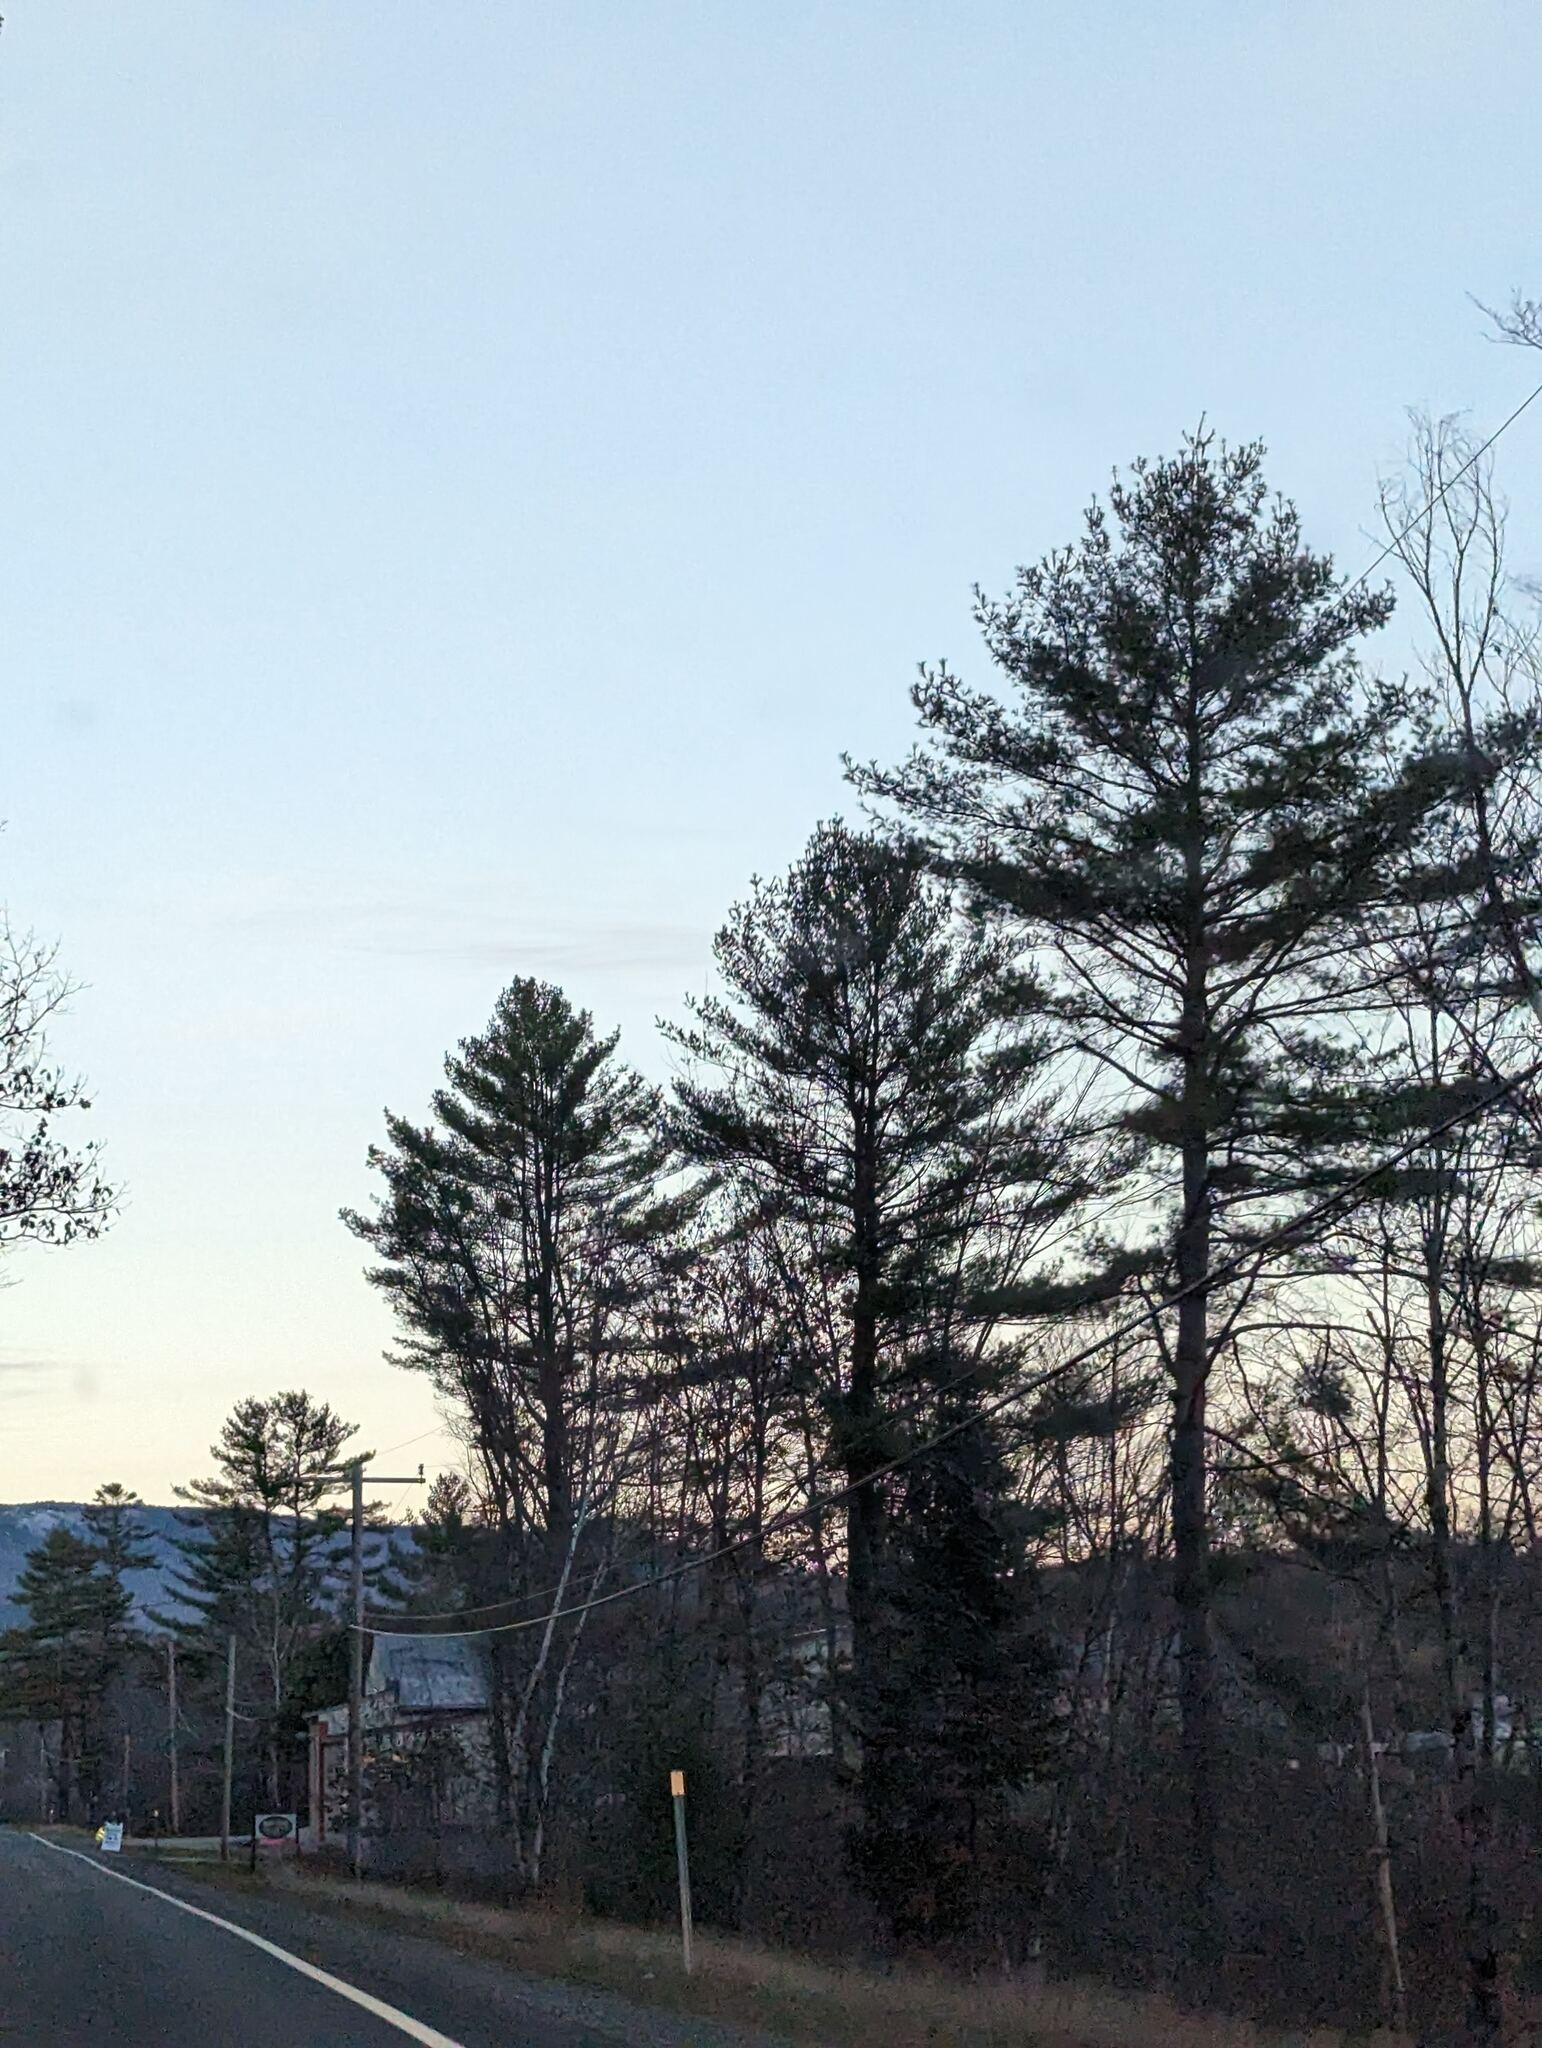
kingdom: Plantae
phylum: Tracheophyta
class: Pinopsida
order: Pinales
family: Pinaceae
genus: Pinus
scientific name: Pinus strobus
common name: Weymouth pine
